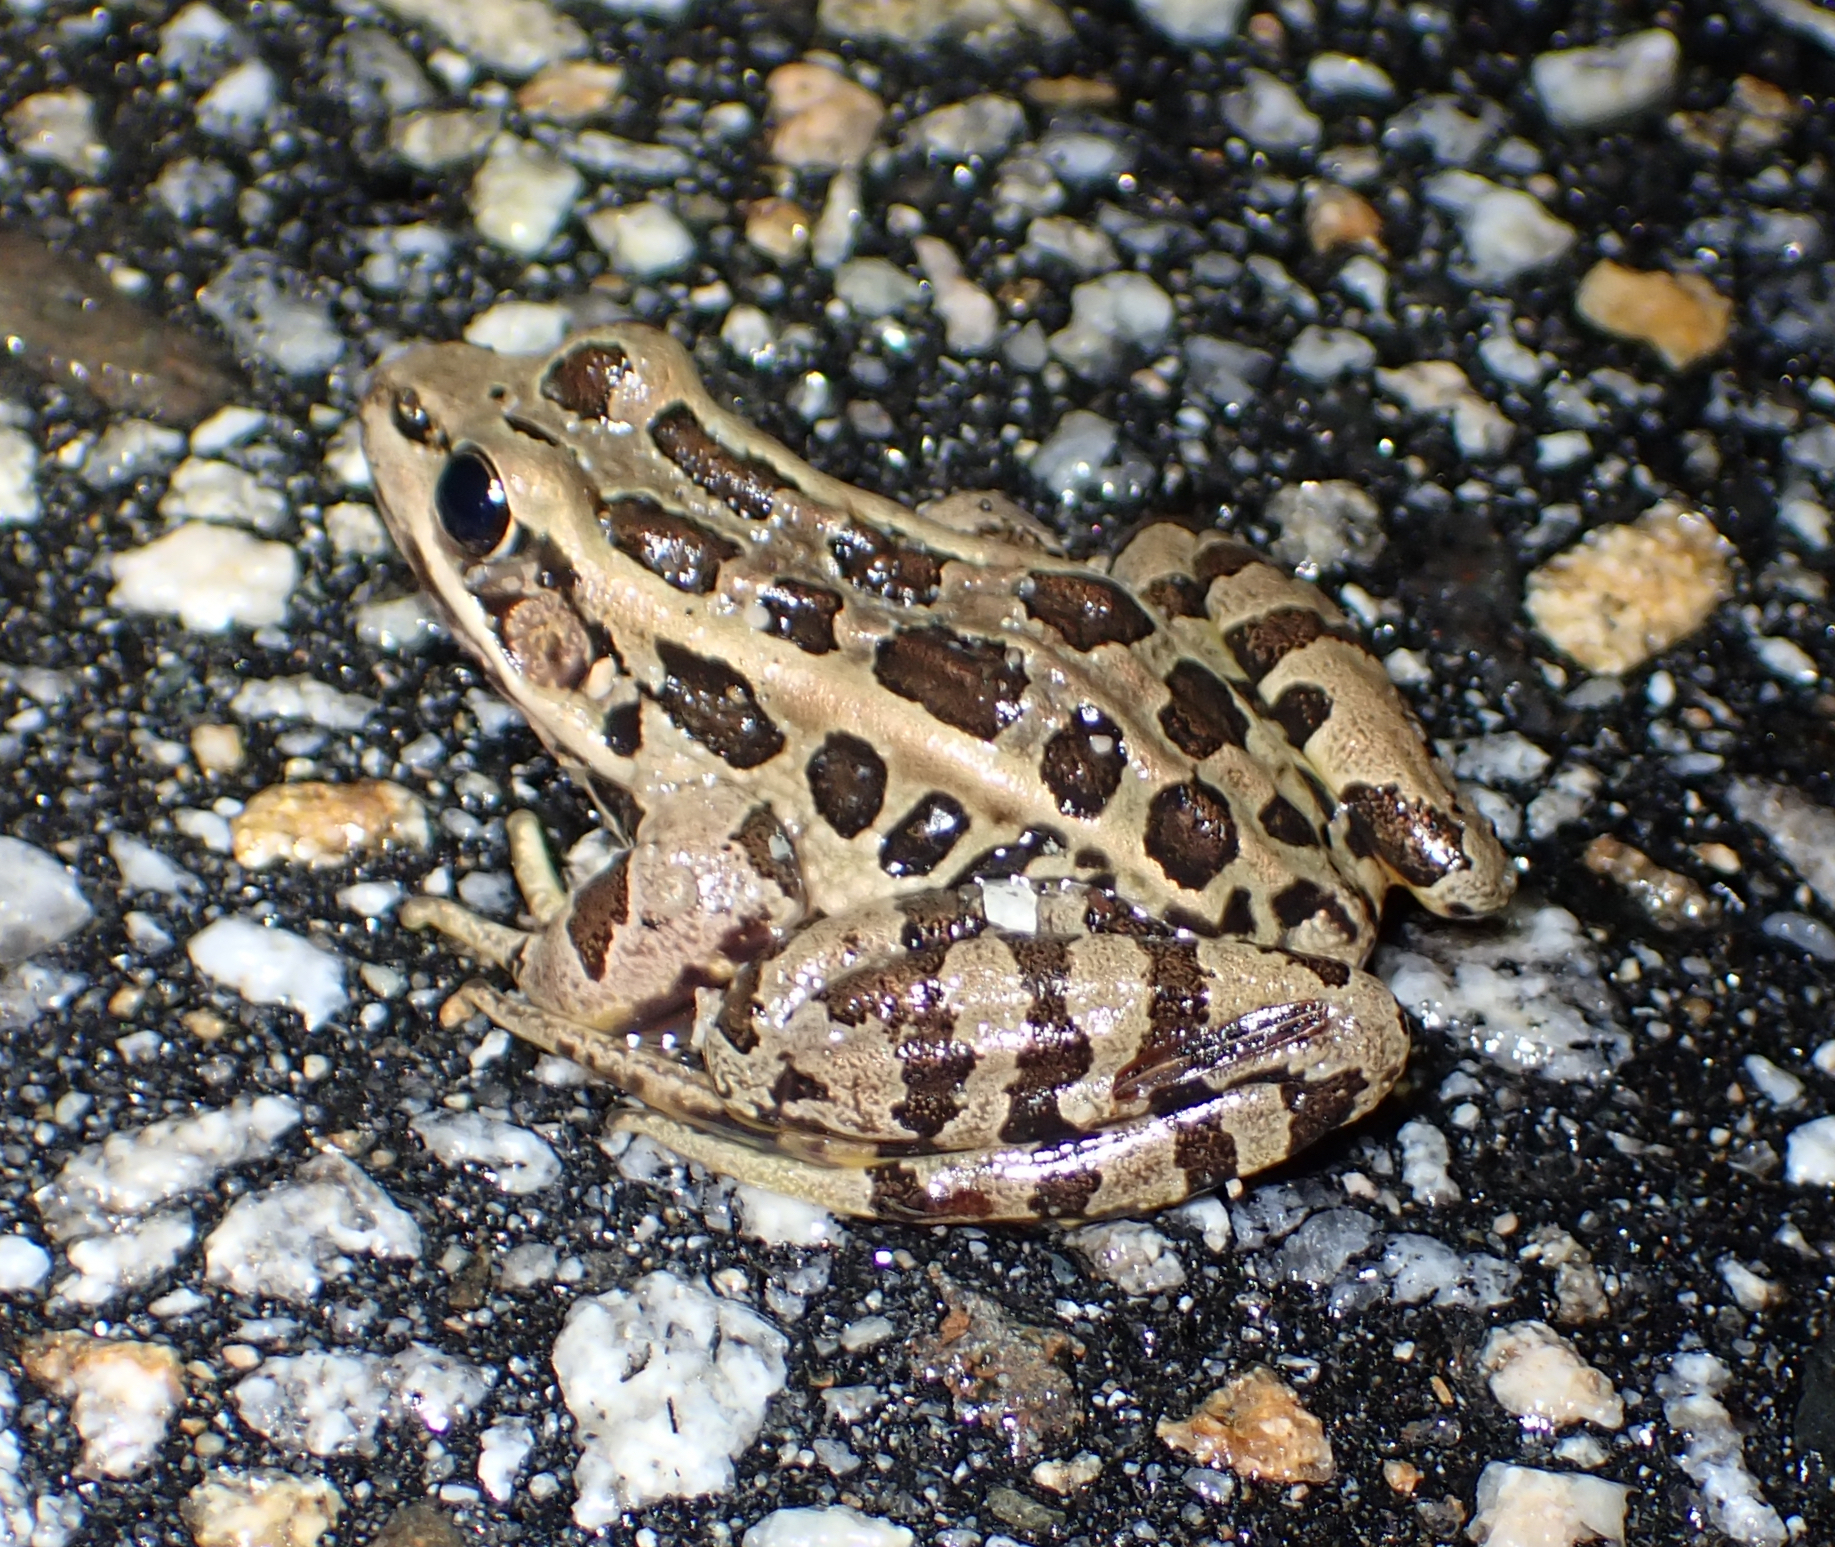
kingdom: Animalia
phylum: Chordata
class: Amphibia
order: Anura
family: Ranidae
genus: Lithobates
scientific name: Lithobates palustris
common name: Pickerel frog
